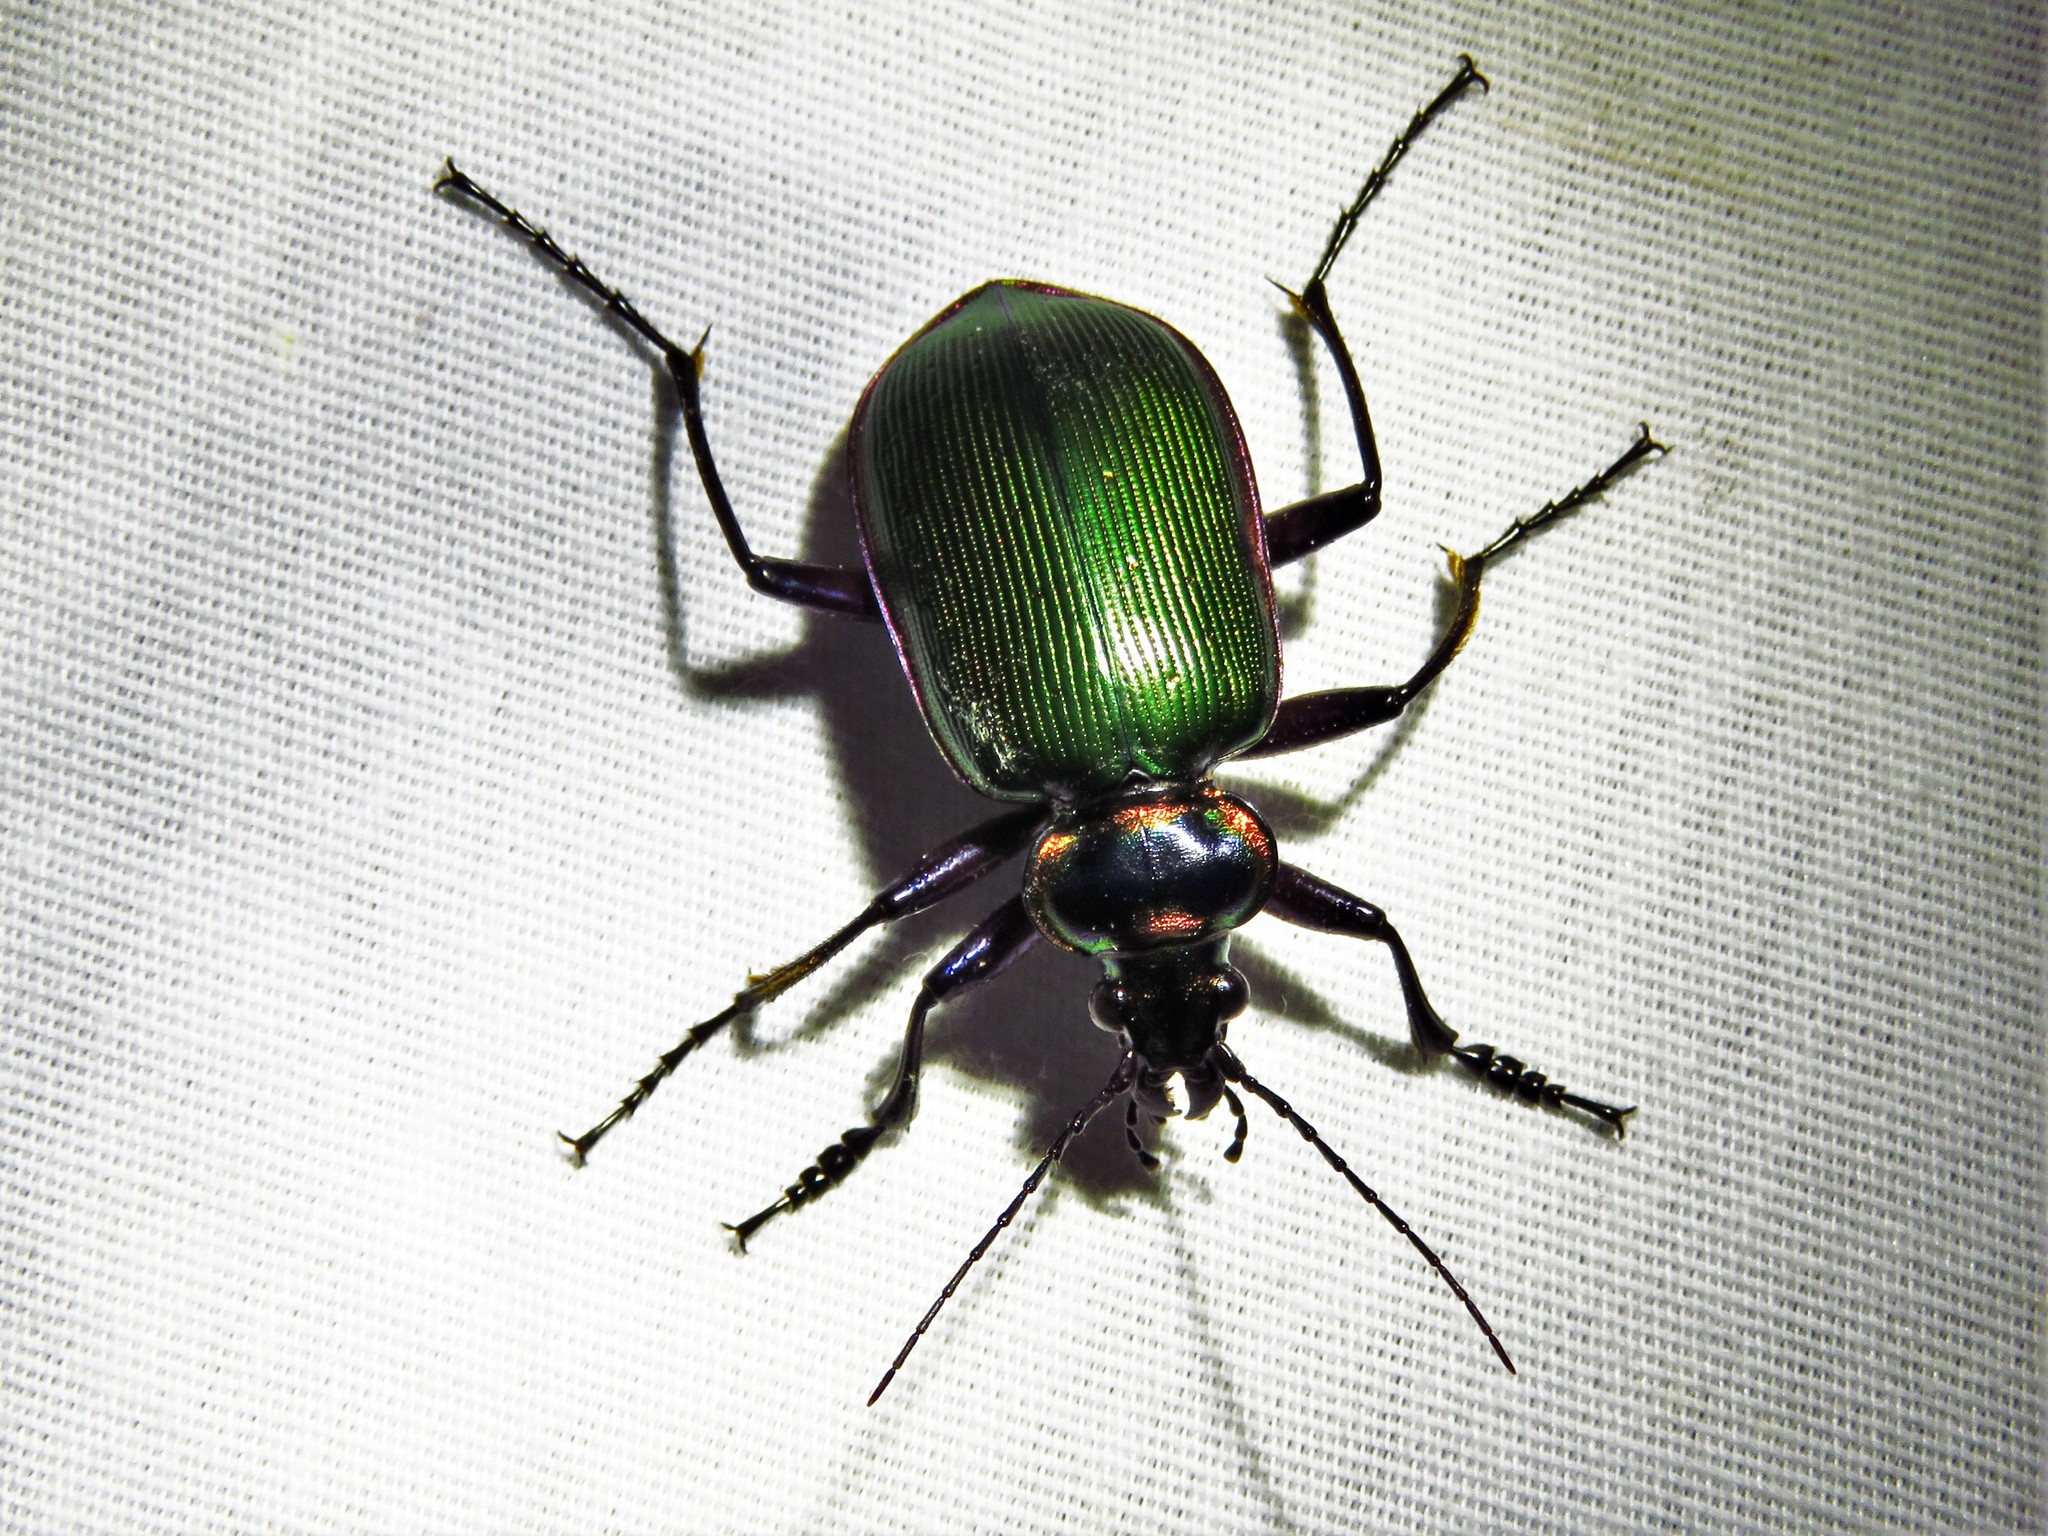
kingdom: Animalia
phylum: Arthropoda
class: Insecta
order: Coleoptera
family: Carabidae
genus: Calosoma
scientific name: Calosoma scrutator
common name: Fiery searcher beetle
